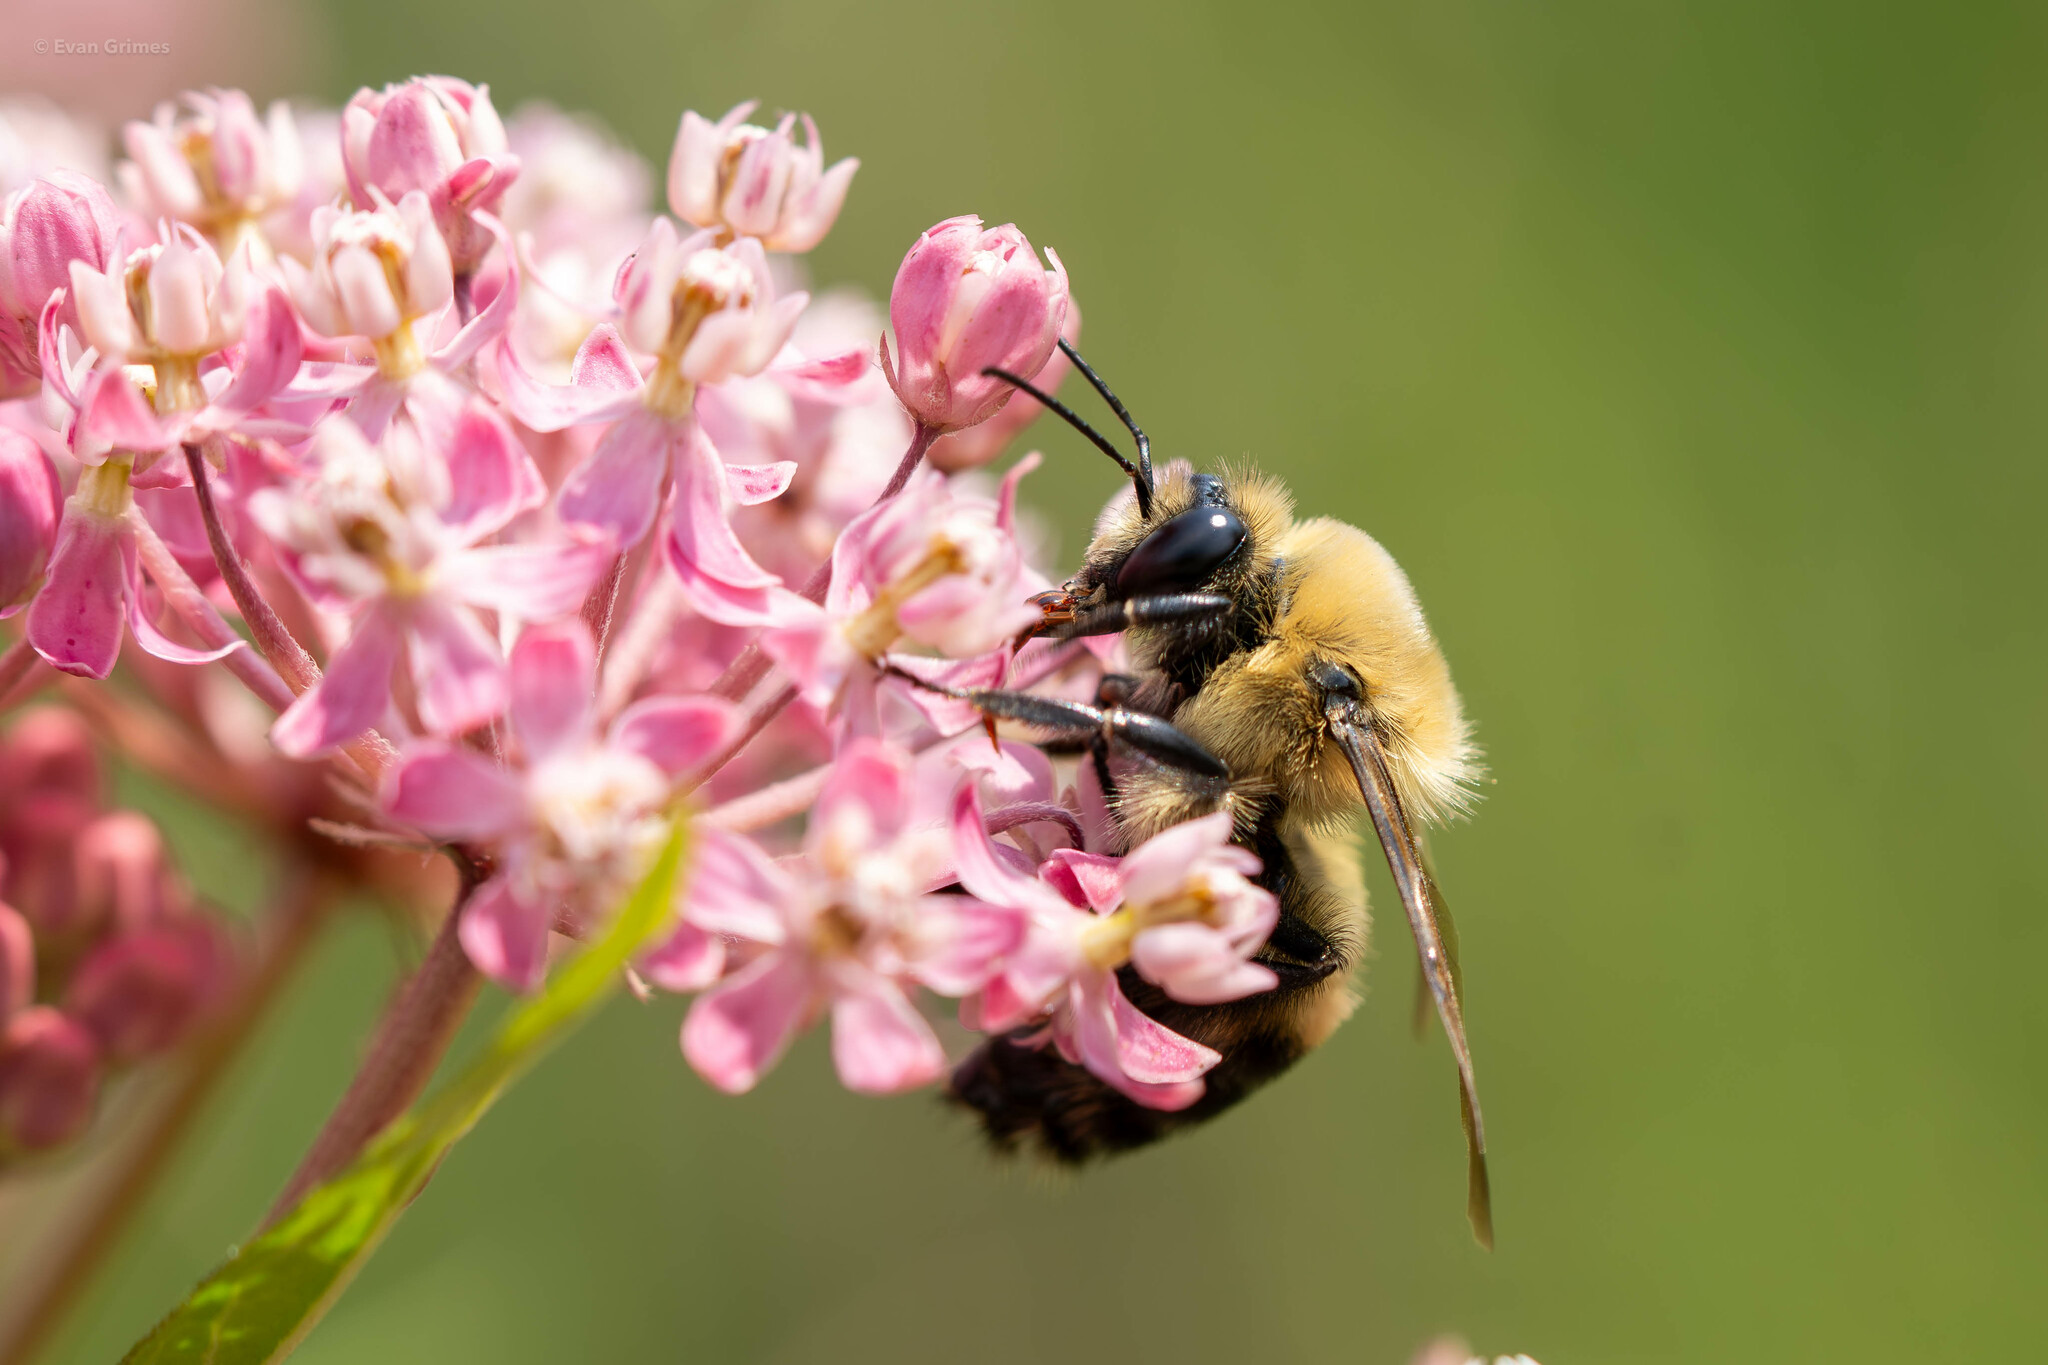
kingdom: Animalia
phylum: Arthropoda
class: Insecta
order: Hymenoptera
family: Apidae
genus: Bombus
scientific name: Bombus griseocollis
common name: Brown-belted bumble bee
